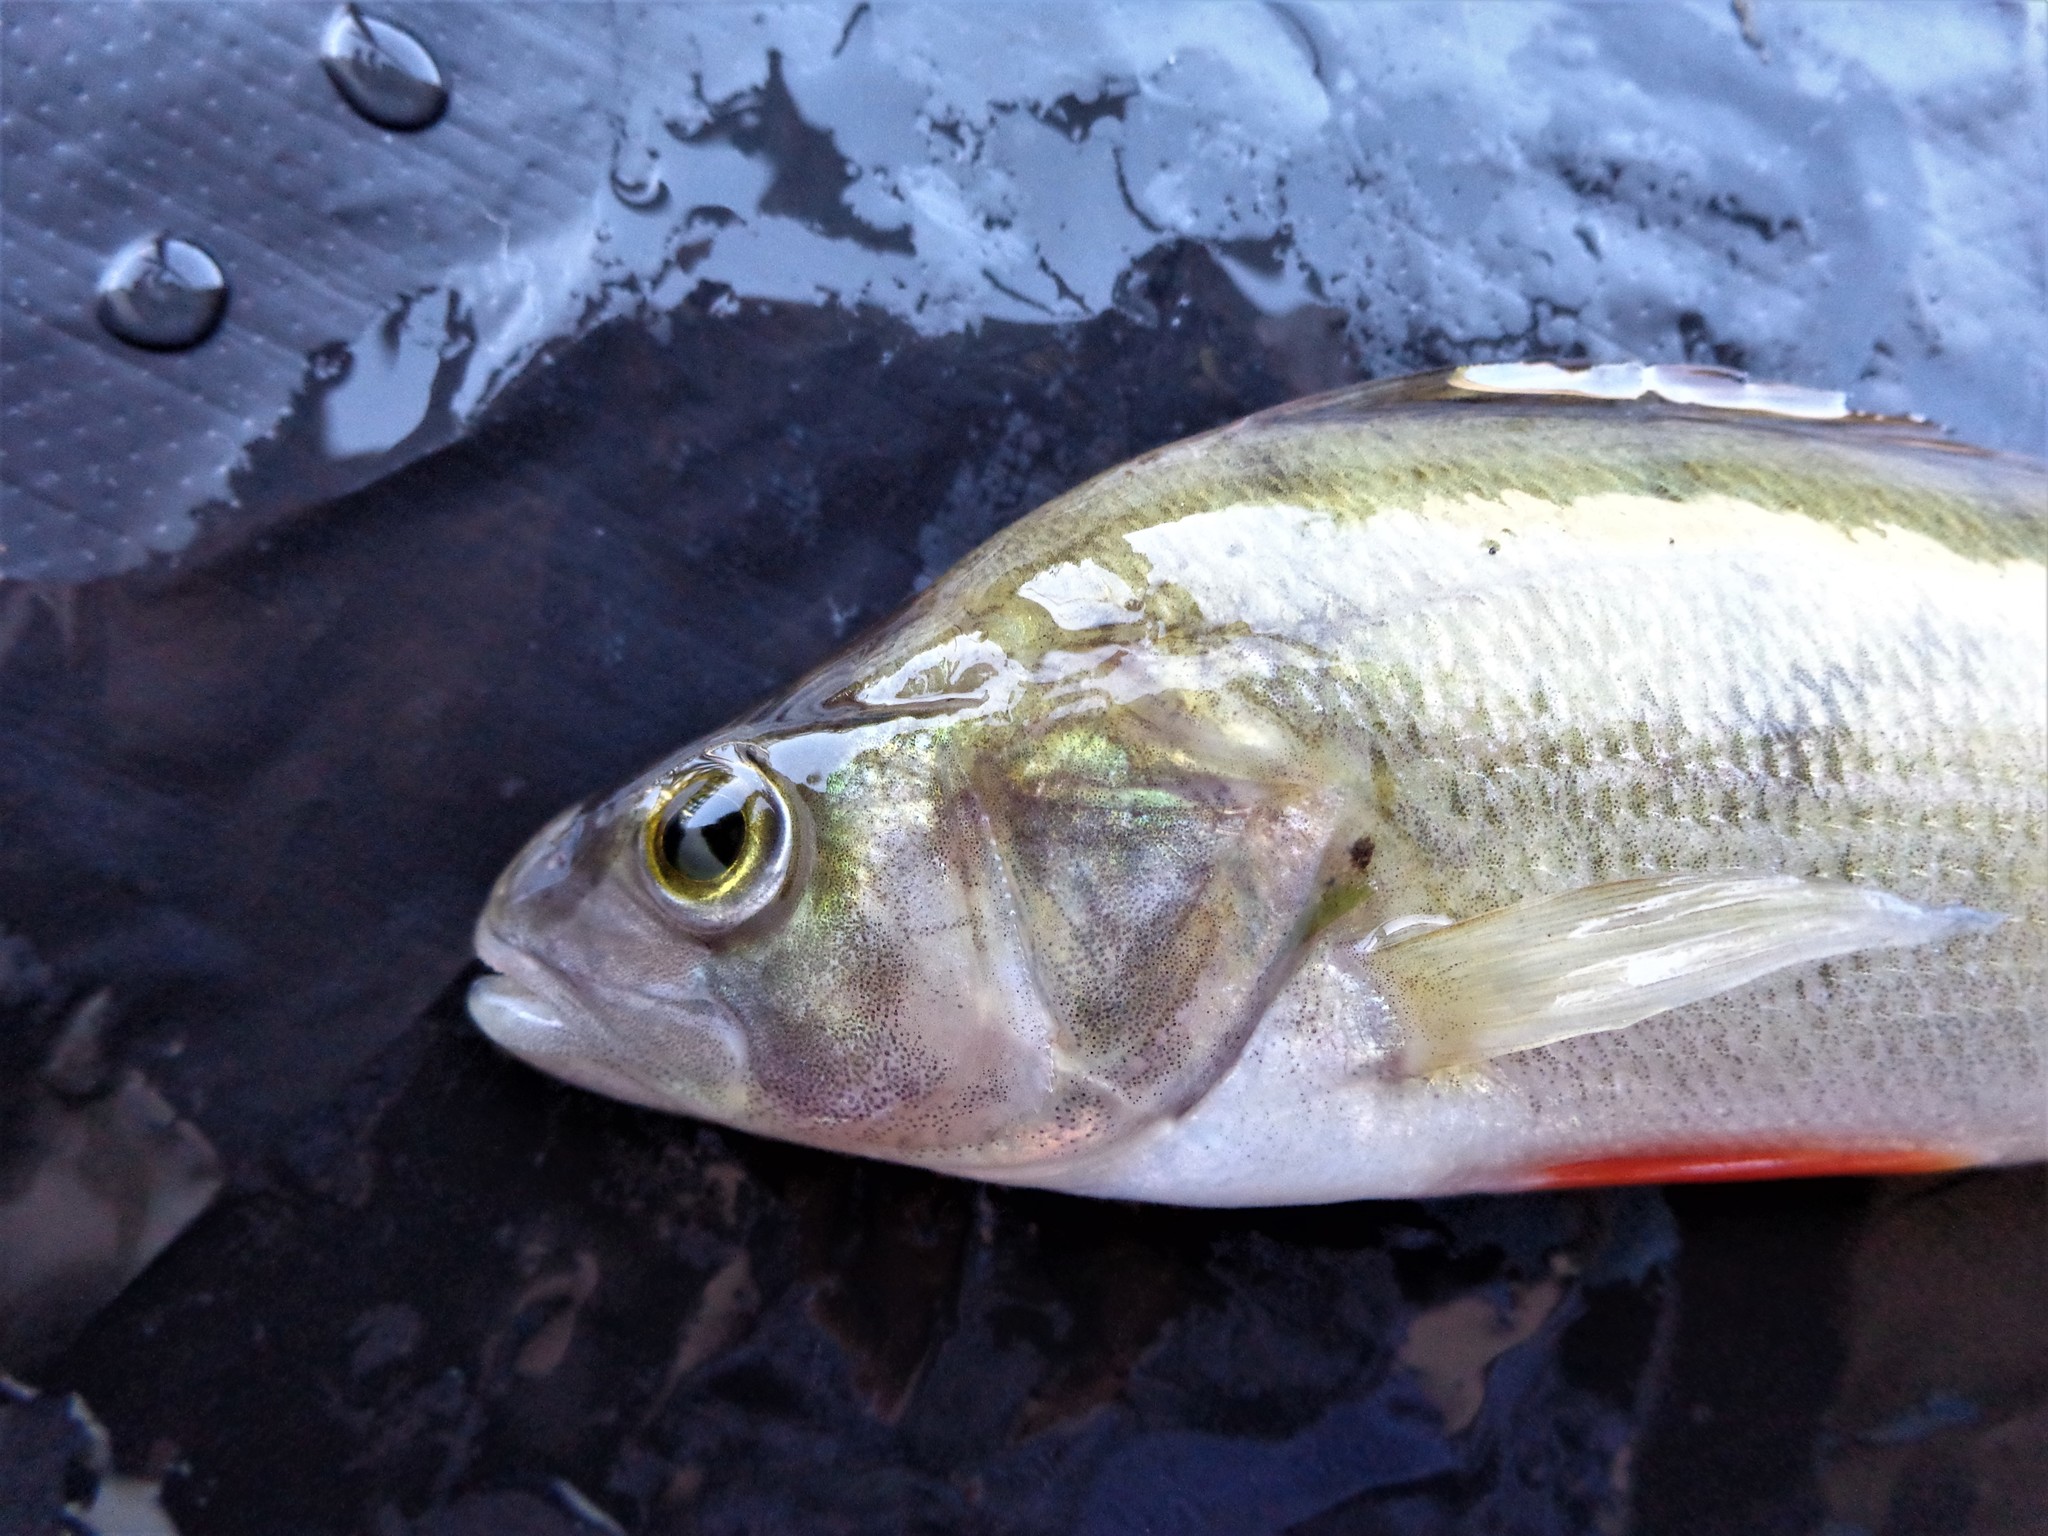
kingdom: Animalia
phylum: Chordata
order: Perciformes
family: Percidae
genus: Perca
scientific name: Perca fluviatilis
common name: Perch
